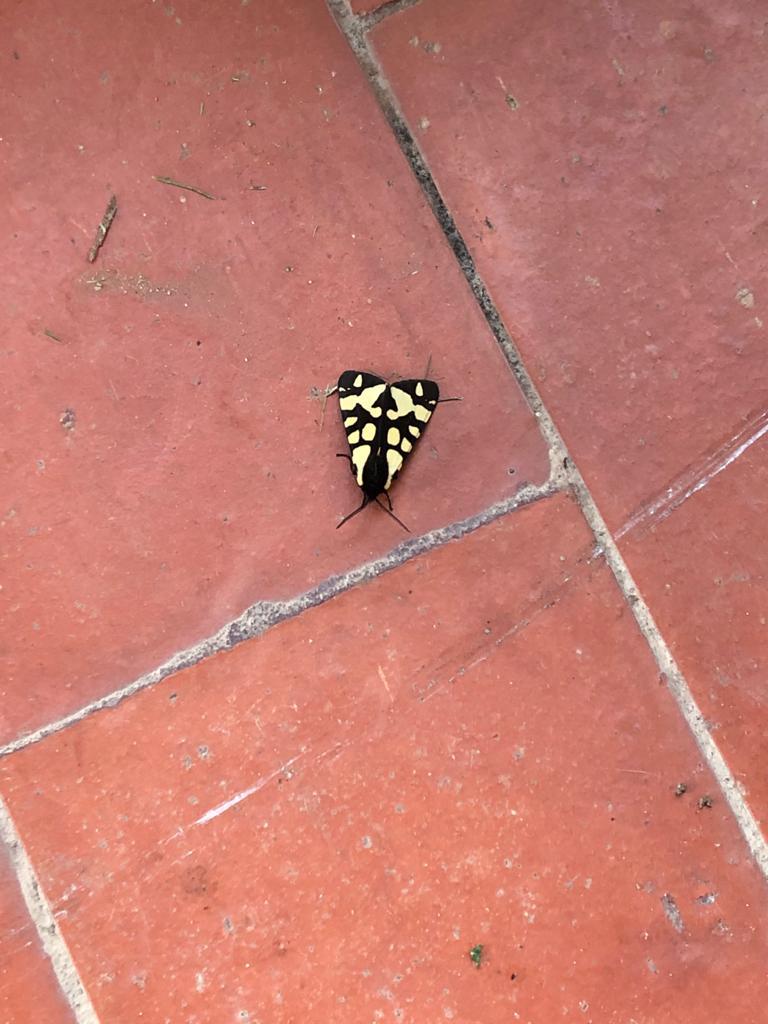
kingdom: Animalia
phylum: Arthropoda
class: Insecta
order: Lepidoptera
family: Erebidae
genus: Epicallia
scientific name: Epicallia villica
